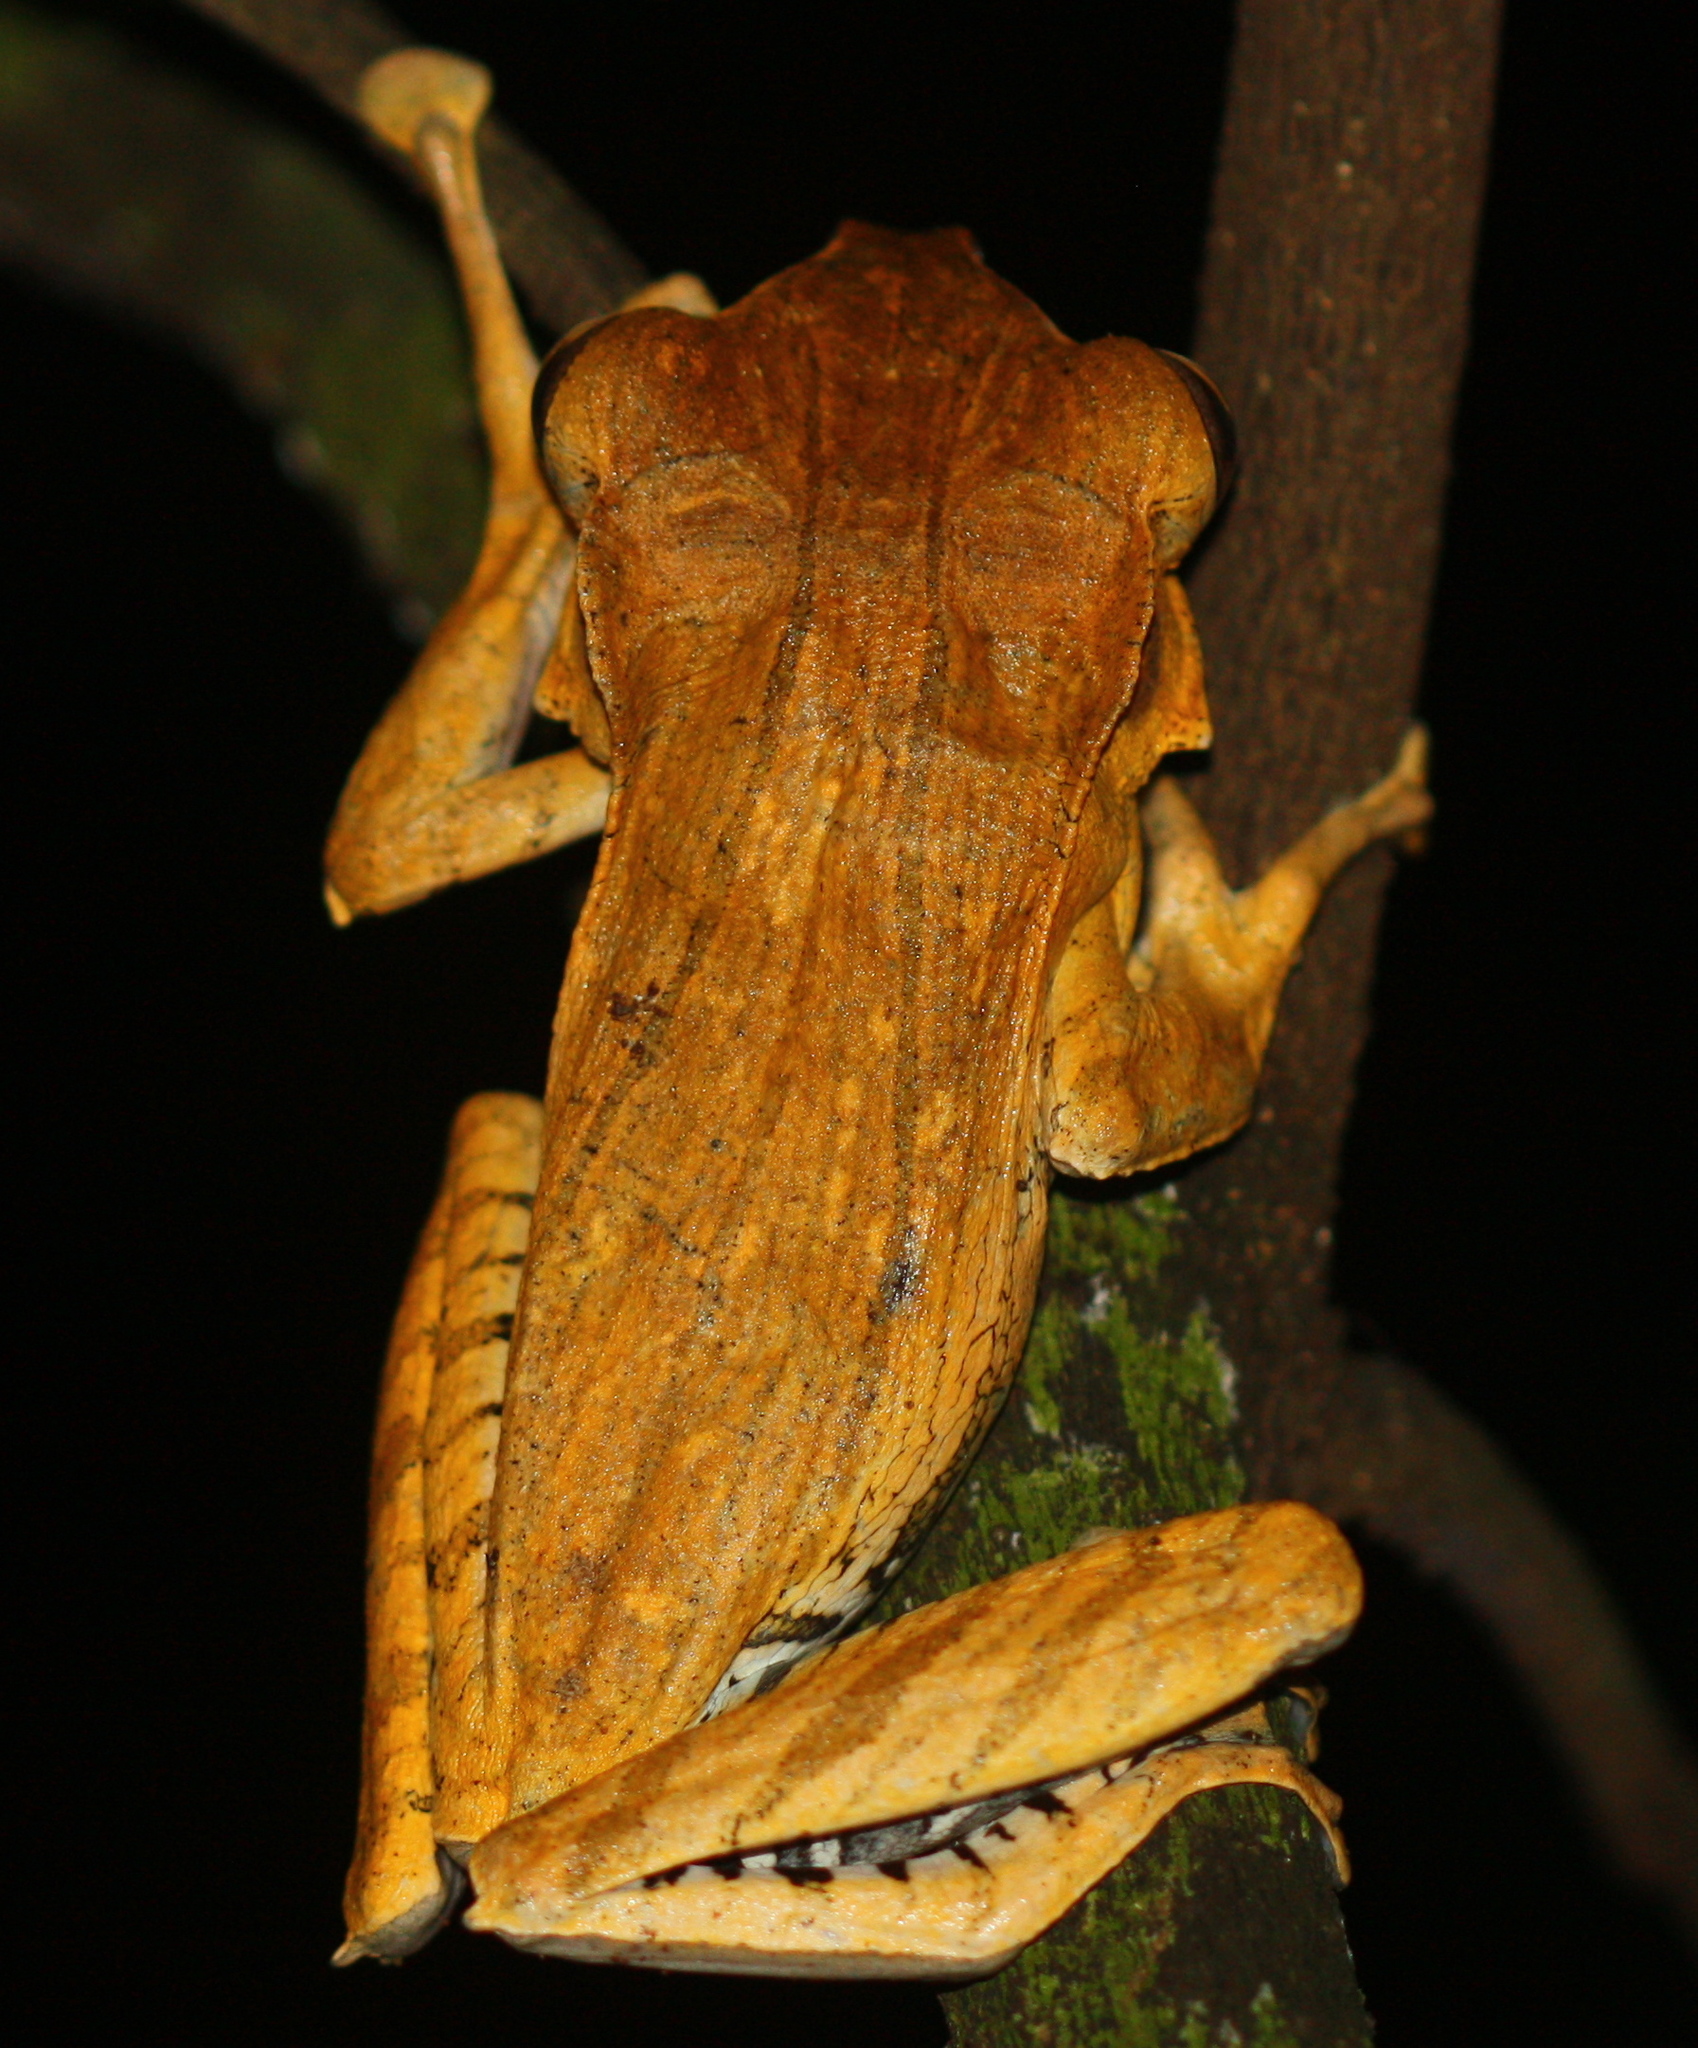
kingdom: Animalia
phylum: Chordata
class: Amphibia
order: Anura
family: Rhacophoridae
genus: Polypedates
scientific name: Polypedates otilophus
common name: File-eared tree frog
